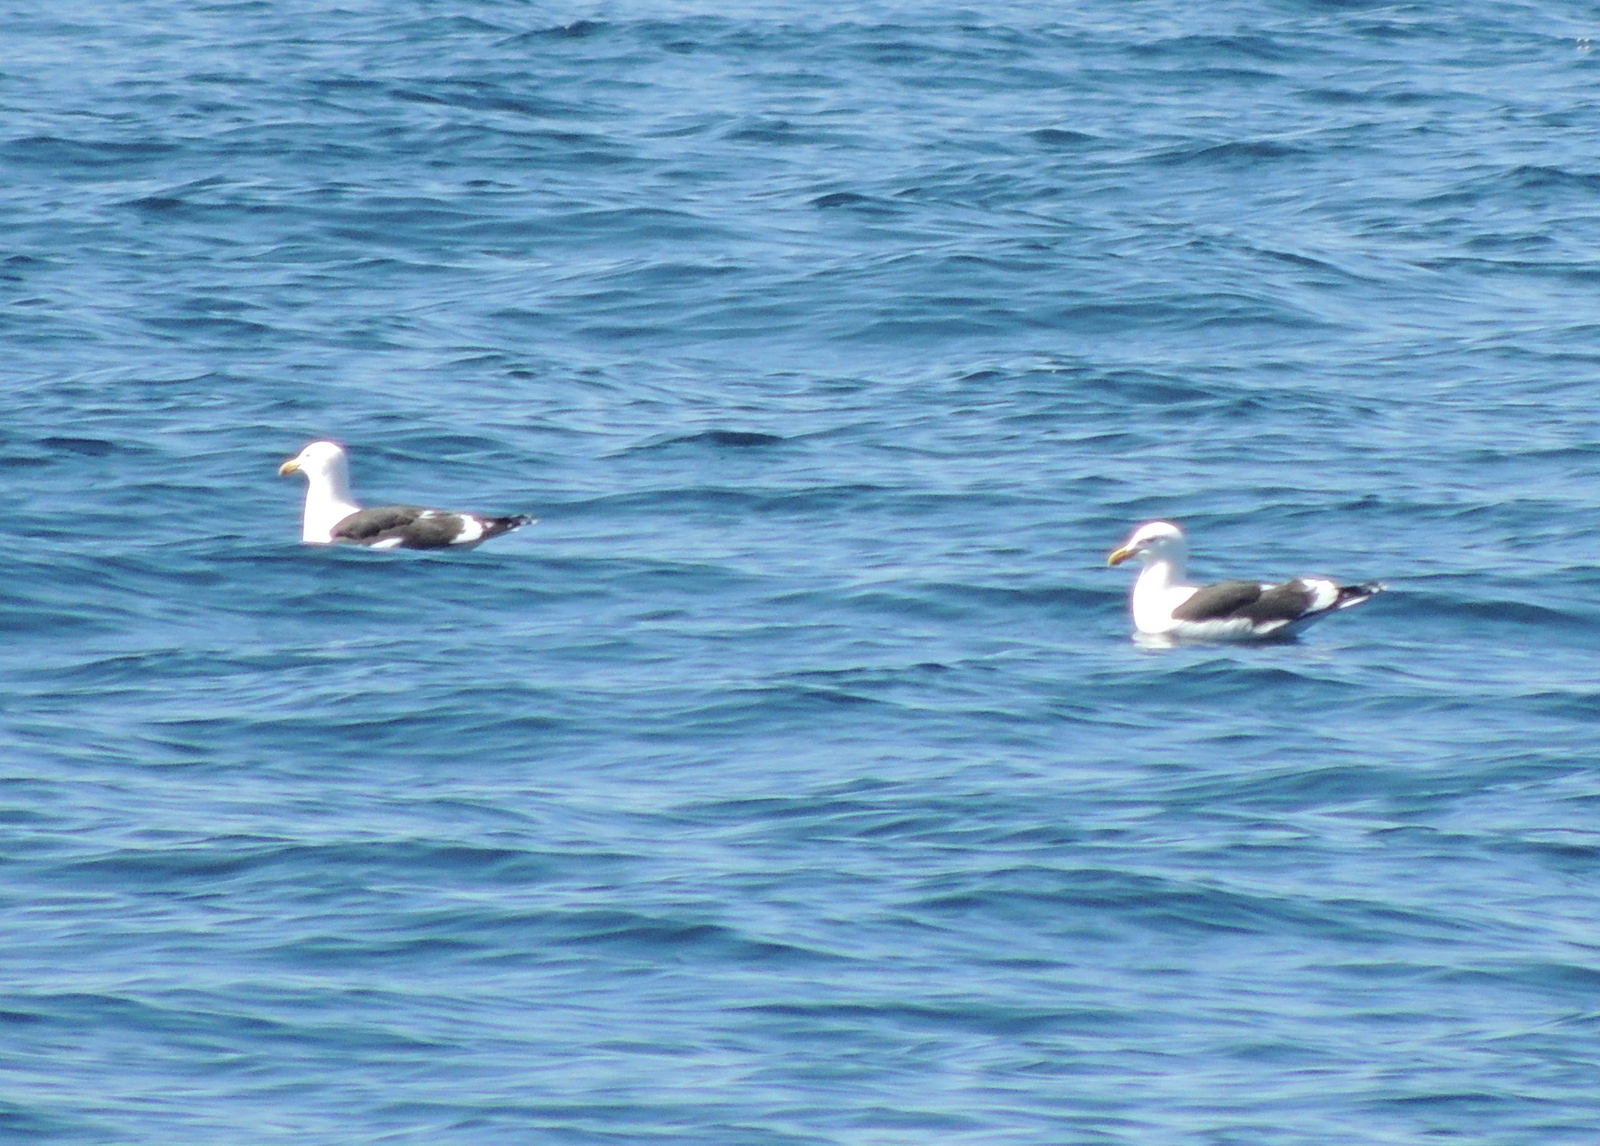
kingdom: Animalia
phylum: Chordata
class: Aves
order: Charadriiformes
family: Laridae
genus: Larus
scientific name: Larus dominicanus
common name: Kelp gull
